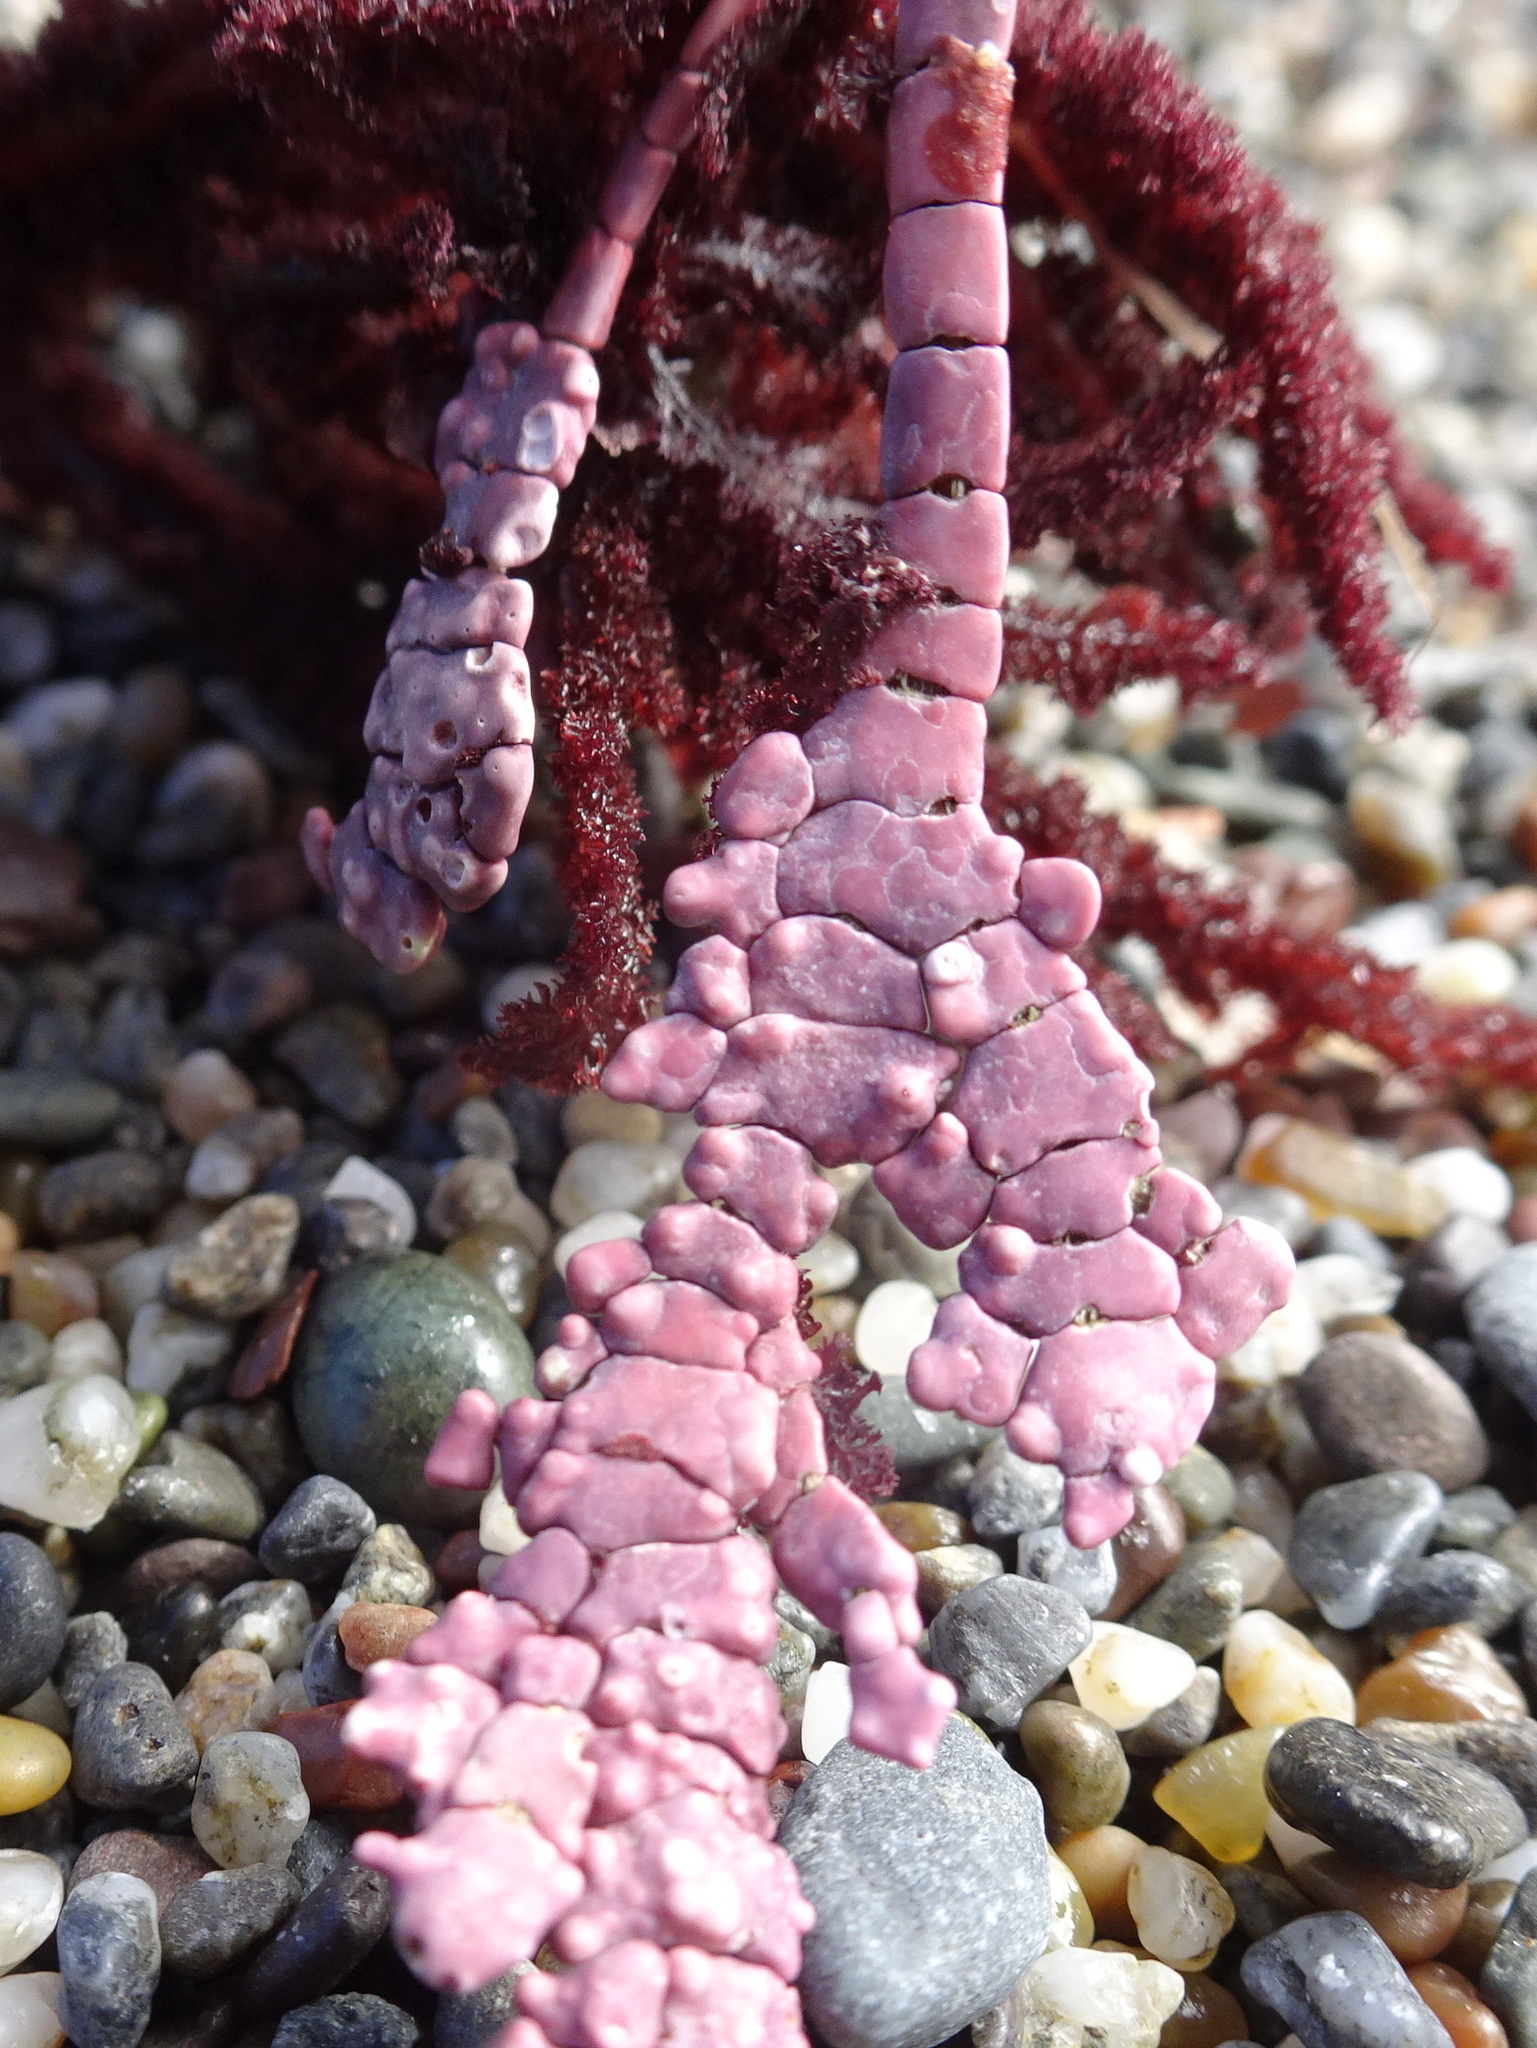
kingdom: Plantae
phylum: Rhodophyta
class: Florideophyceae
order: Corallinales
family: Corallinaceae
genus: Calliarthron
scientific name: Calliarthron tuberculosum
